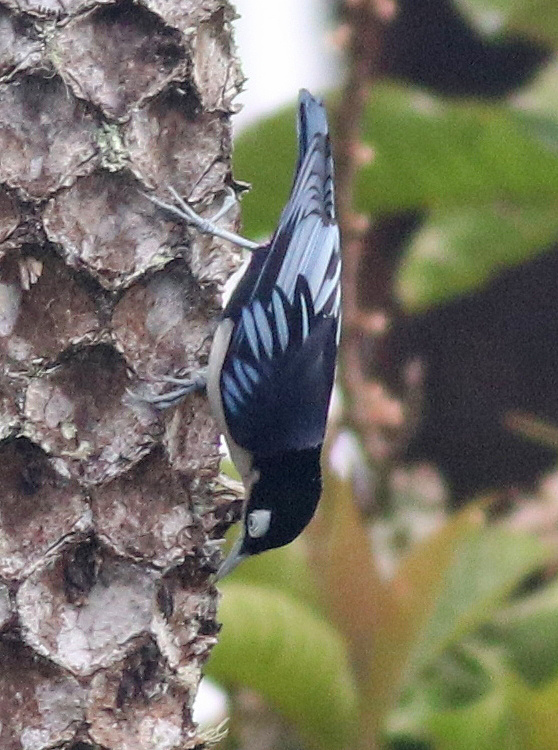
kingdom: Animalia
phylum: Chordata
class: Aves
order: Passeriformes
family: Sittidae
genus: Sitta
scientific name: Sitta azurea
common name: Blue nuthatch
